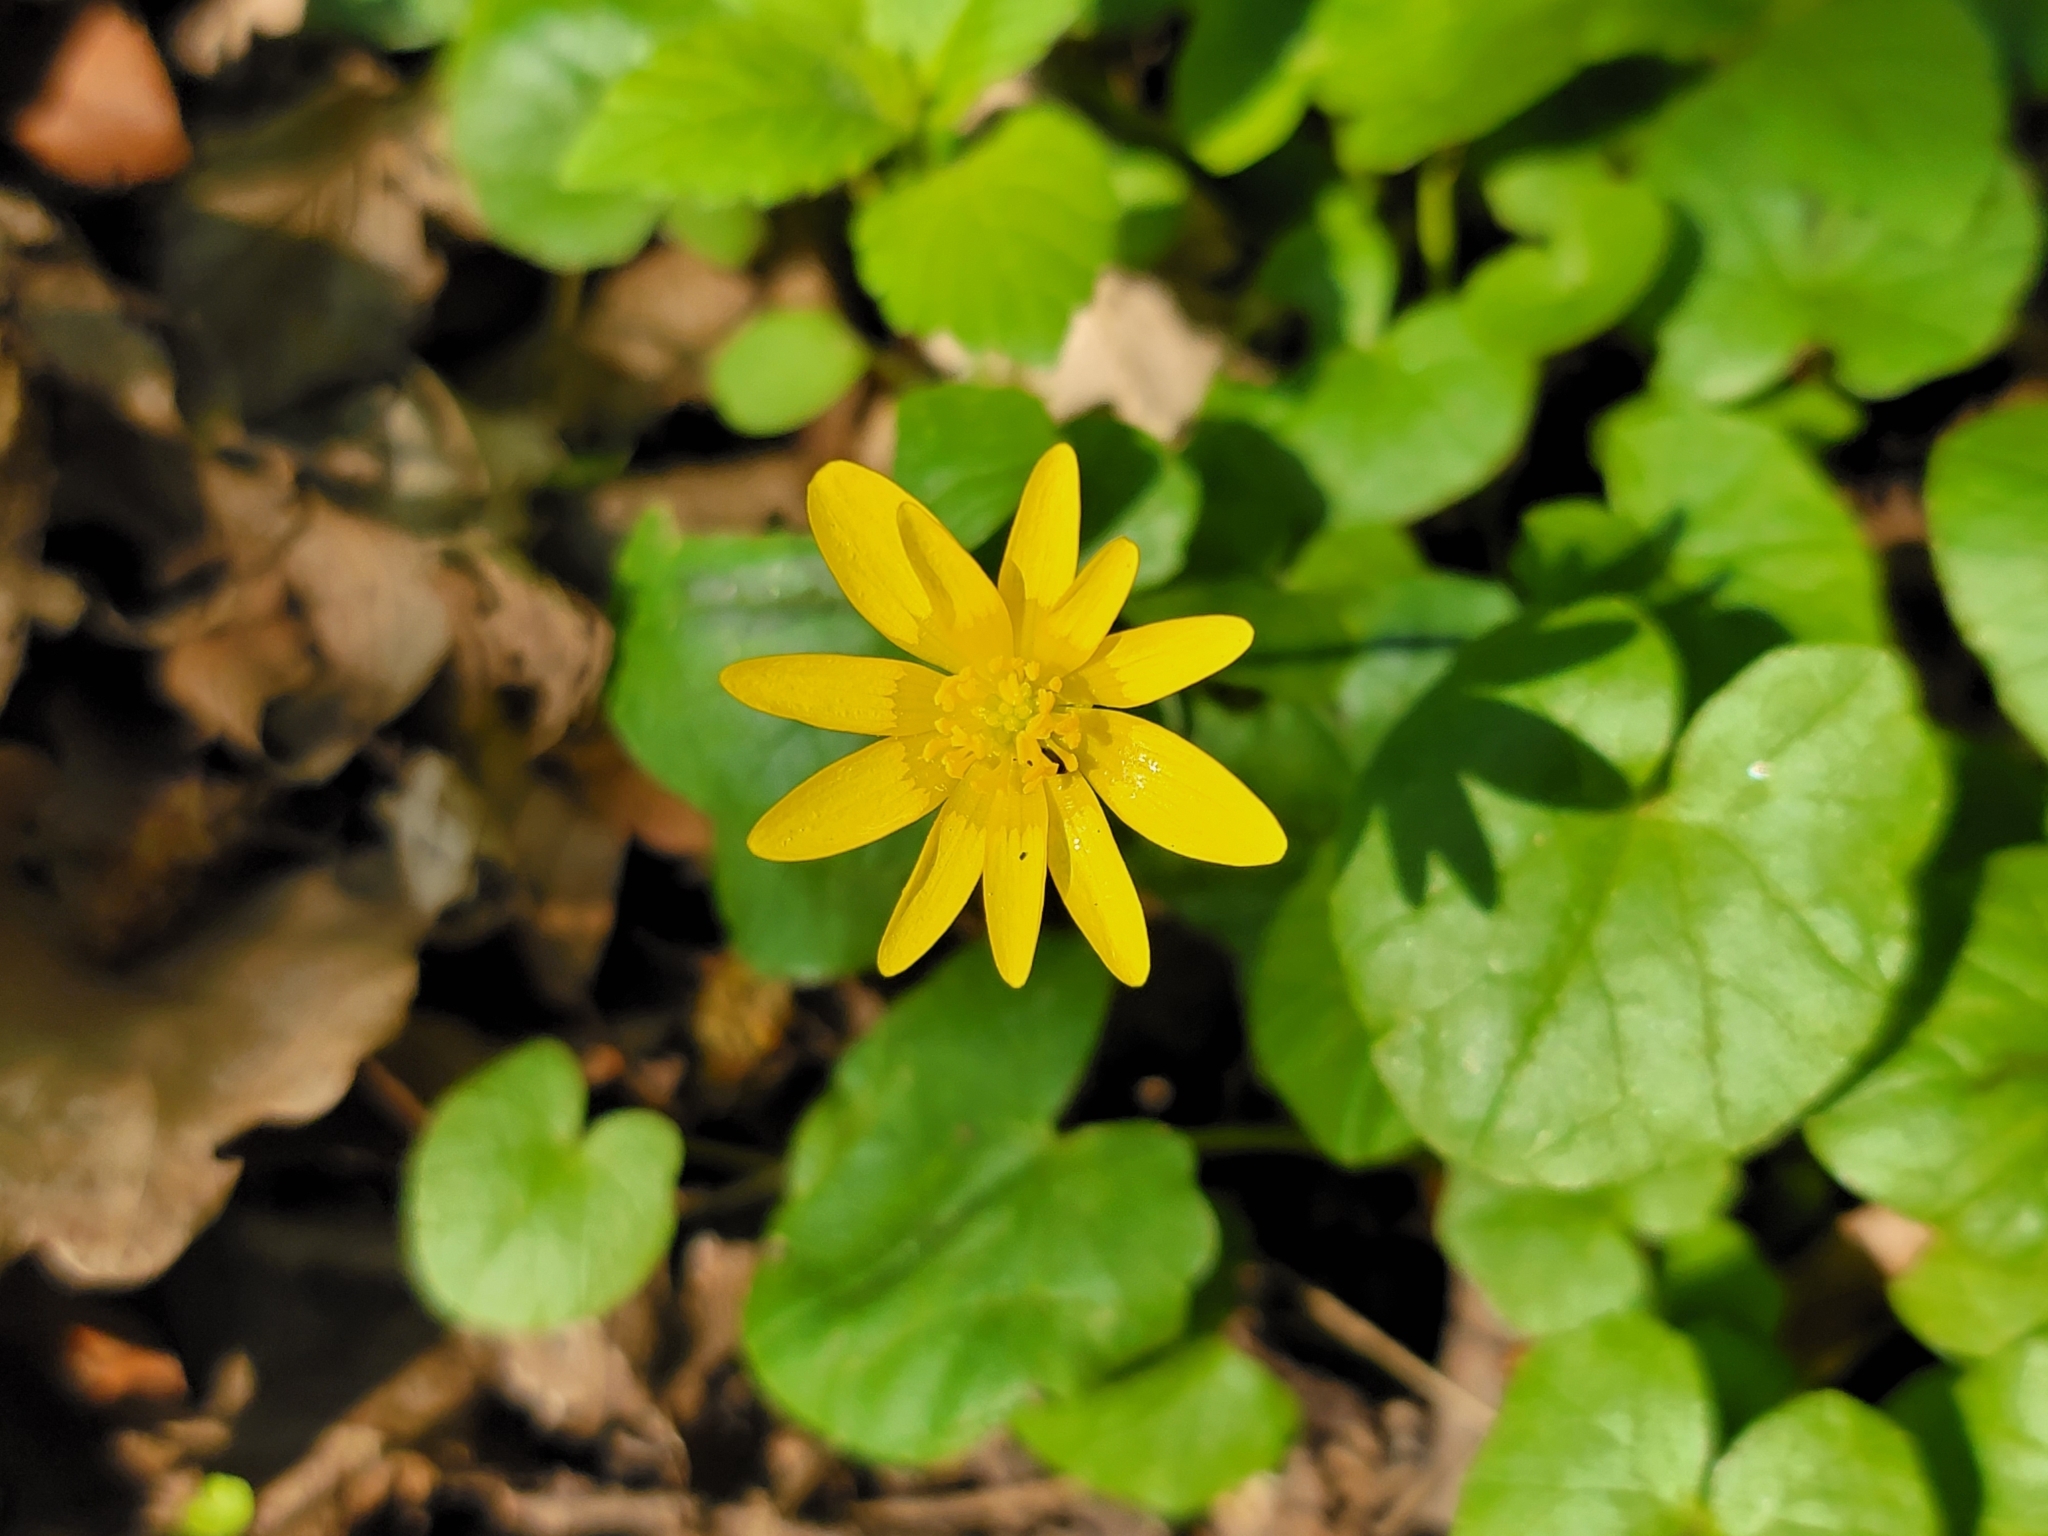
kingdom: Plantae
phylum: Tracheophyta
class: Magnoliopsida
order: Ranunculales
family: Ranunculaceae
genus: Ficaria
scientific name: Ficaria verna
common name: Lesser celandine
